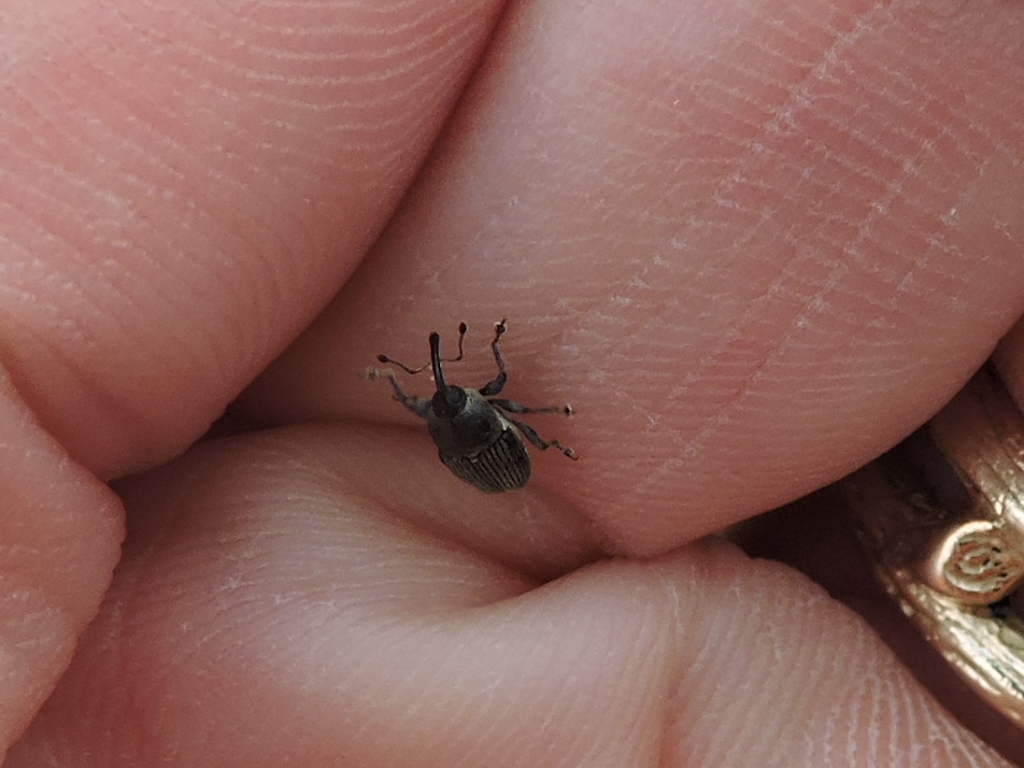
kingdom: Animalia
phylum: Arthropoda
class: Insecta
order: Coleoptera
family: Curculionidae
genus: Odontocorynus
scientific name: Odontocorynus salebrosus
